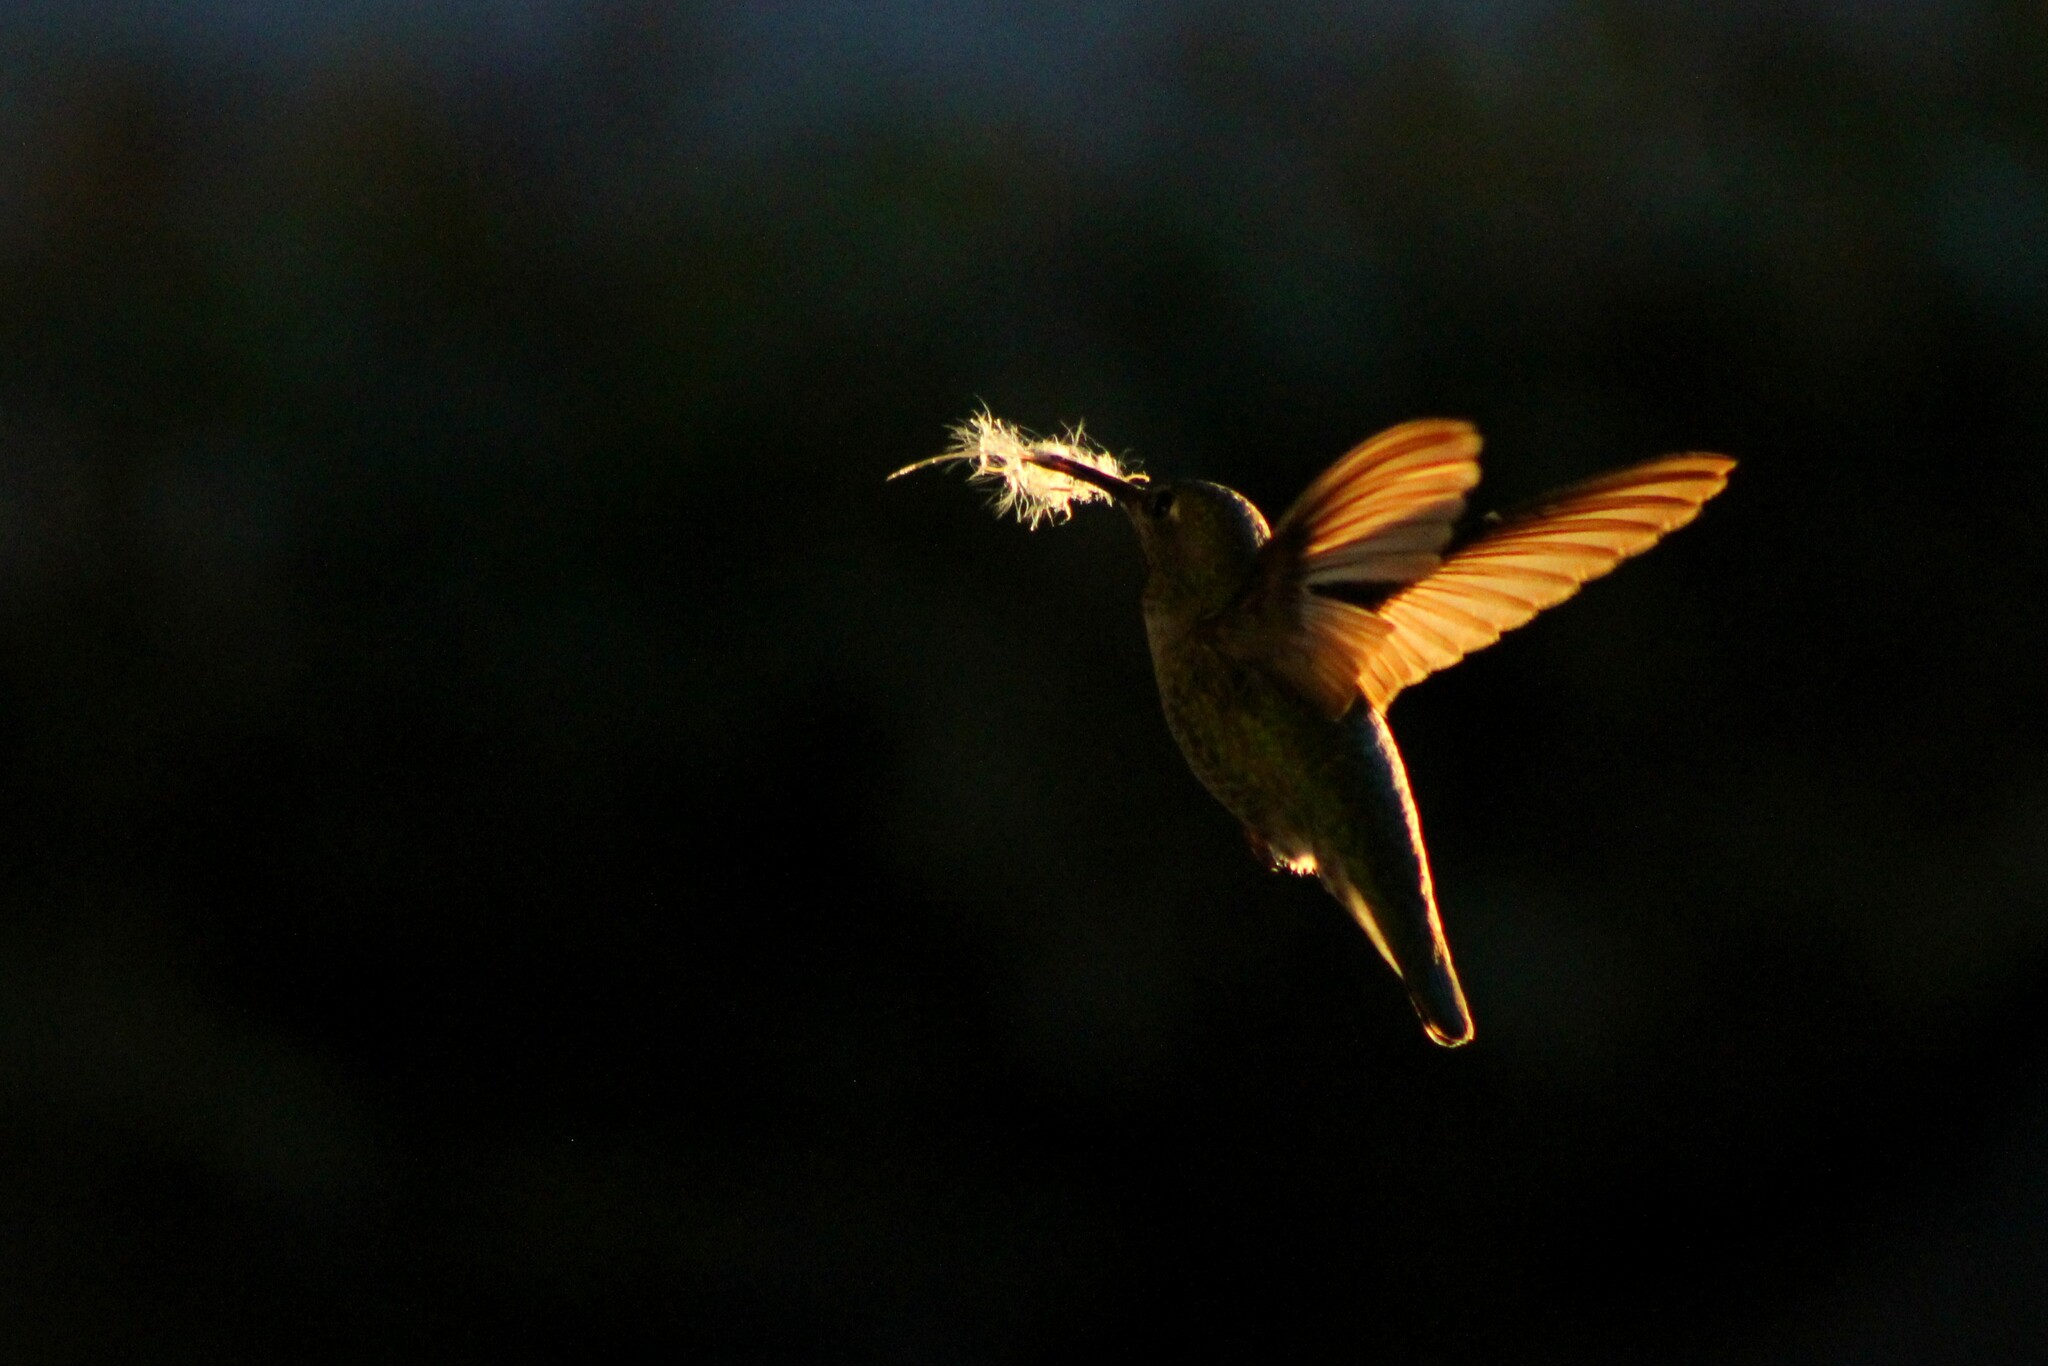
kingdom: Animalia
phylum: Chordata
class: Aves
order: Apodiformes
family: Trochilidae
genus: Calypte
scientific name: Calypte anna
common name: Anna's hummingbird
